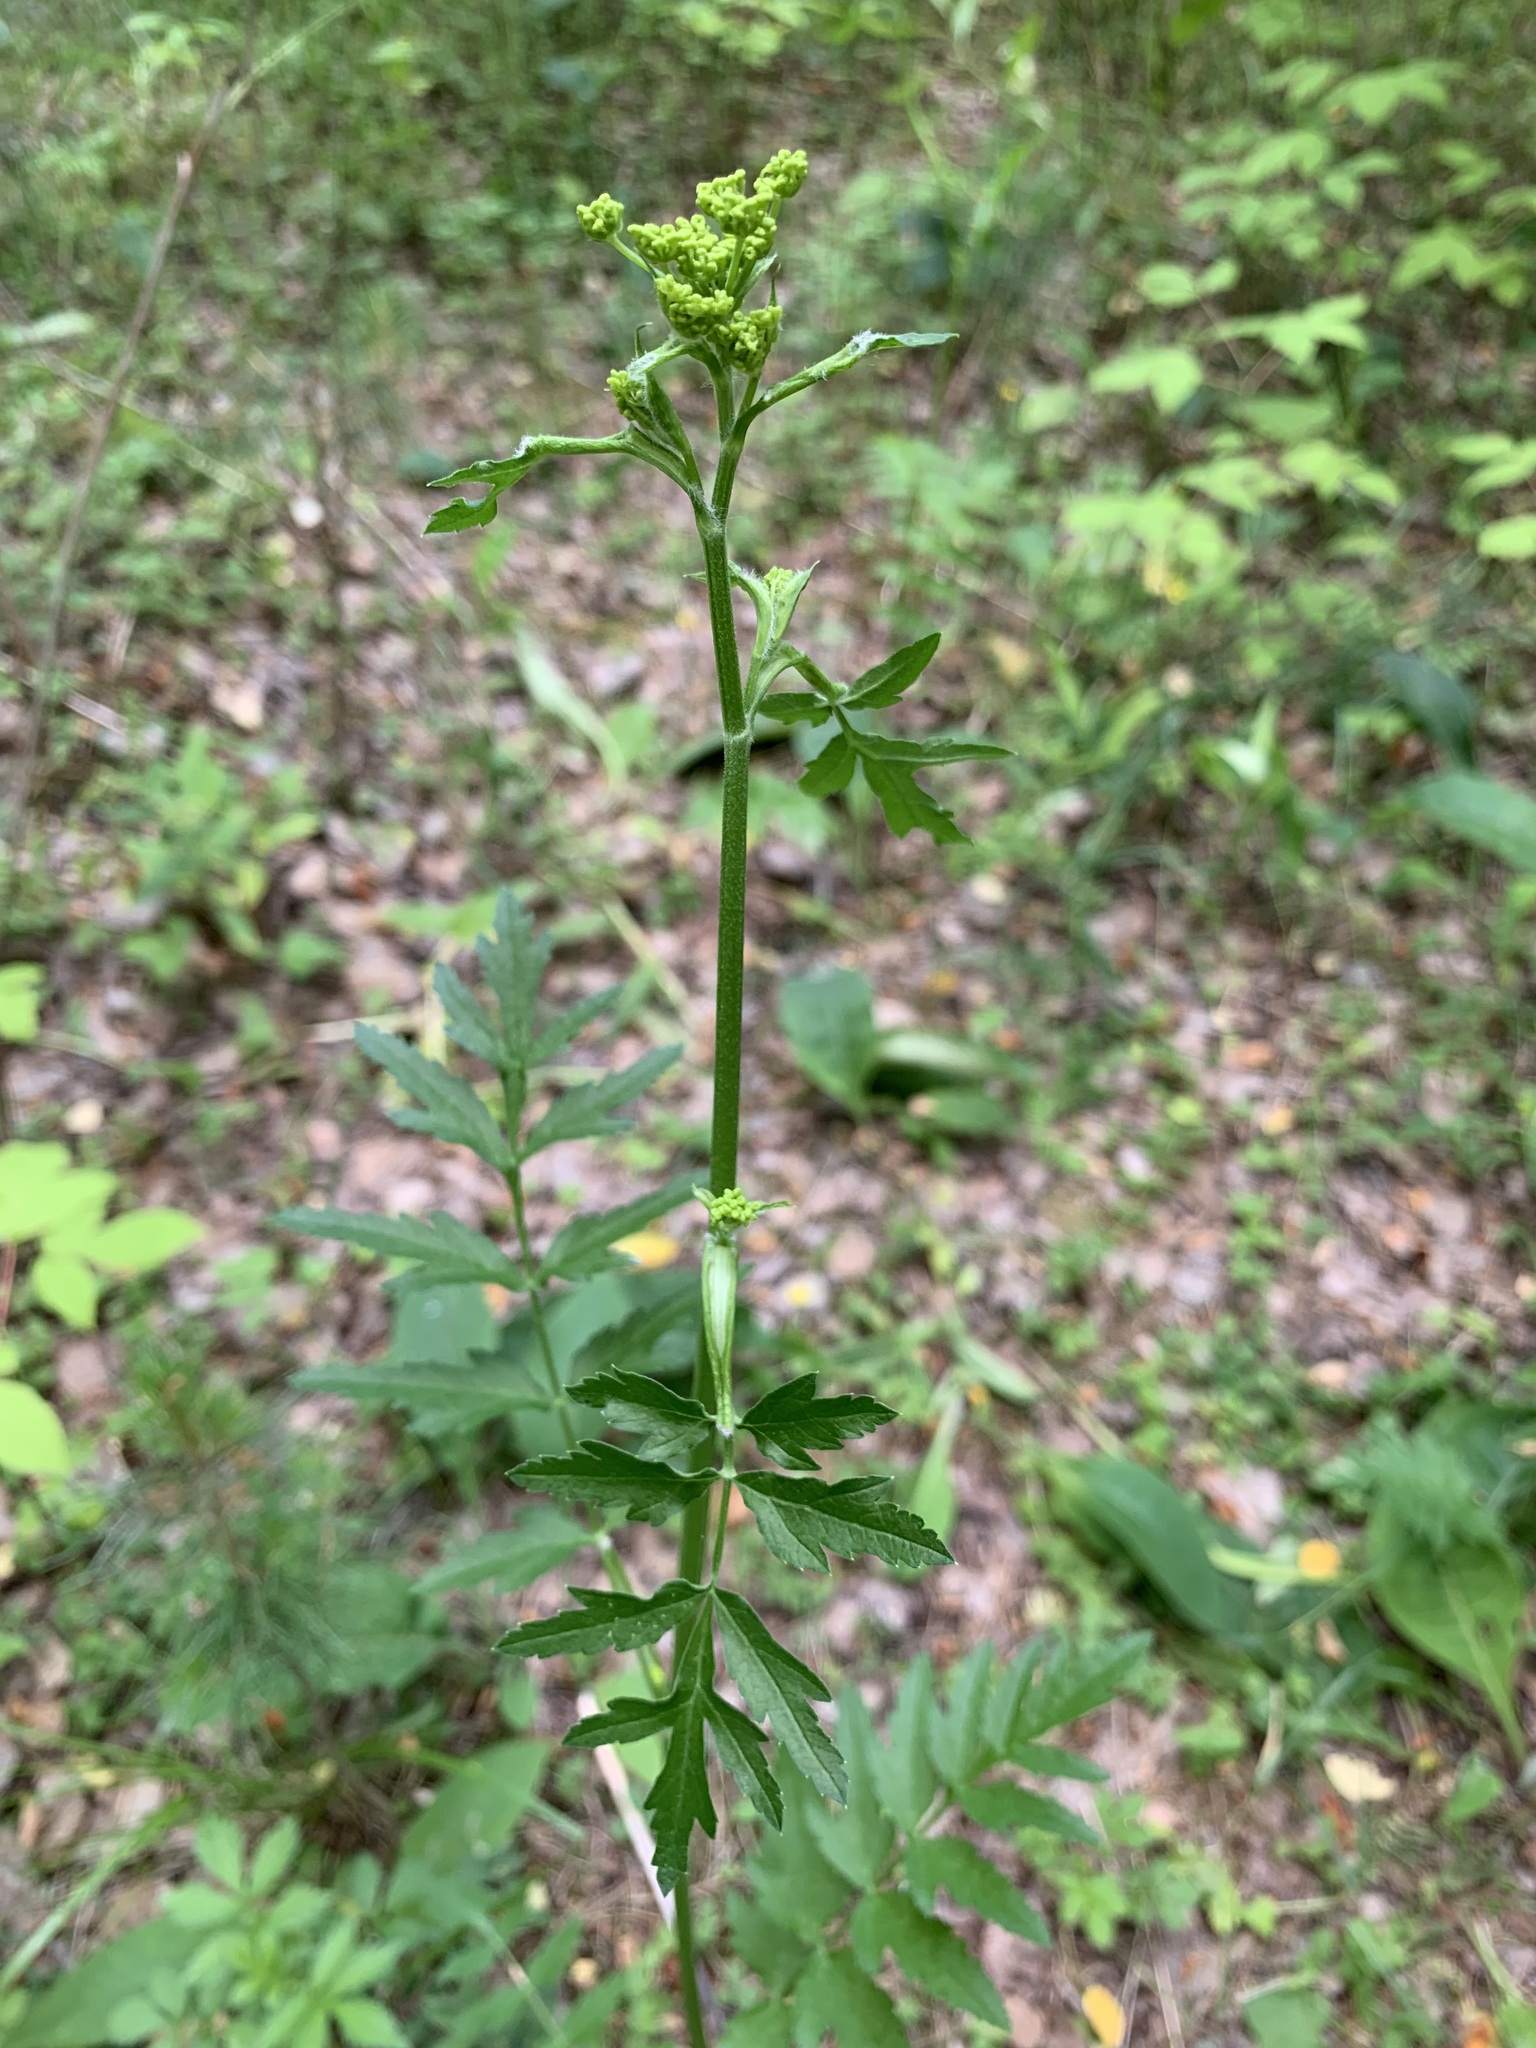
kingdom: Plantae
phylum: Tracheophyta
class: Magnoliopsida
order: Apiales
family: Apiaceae
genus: Pastinaca
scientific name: Pastinaca sativa
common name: Wild parsnip
